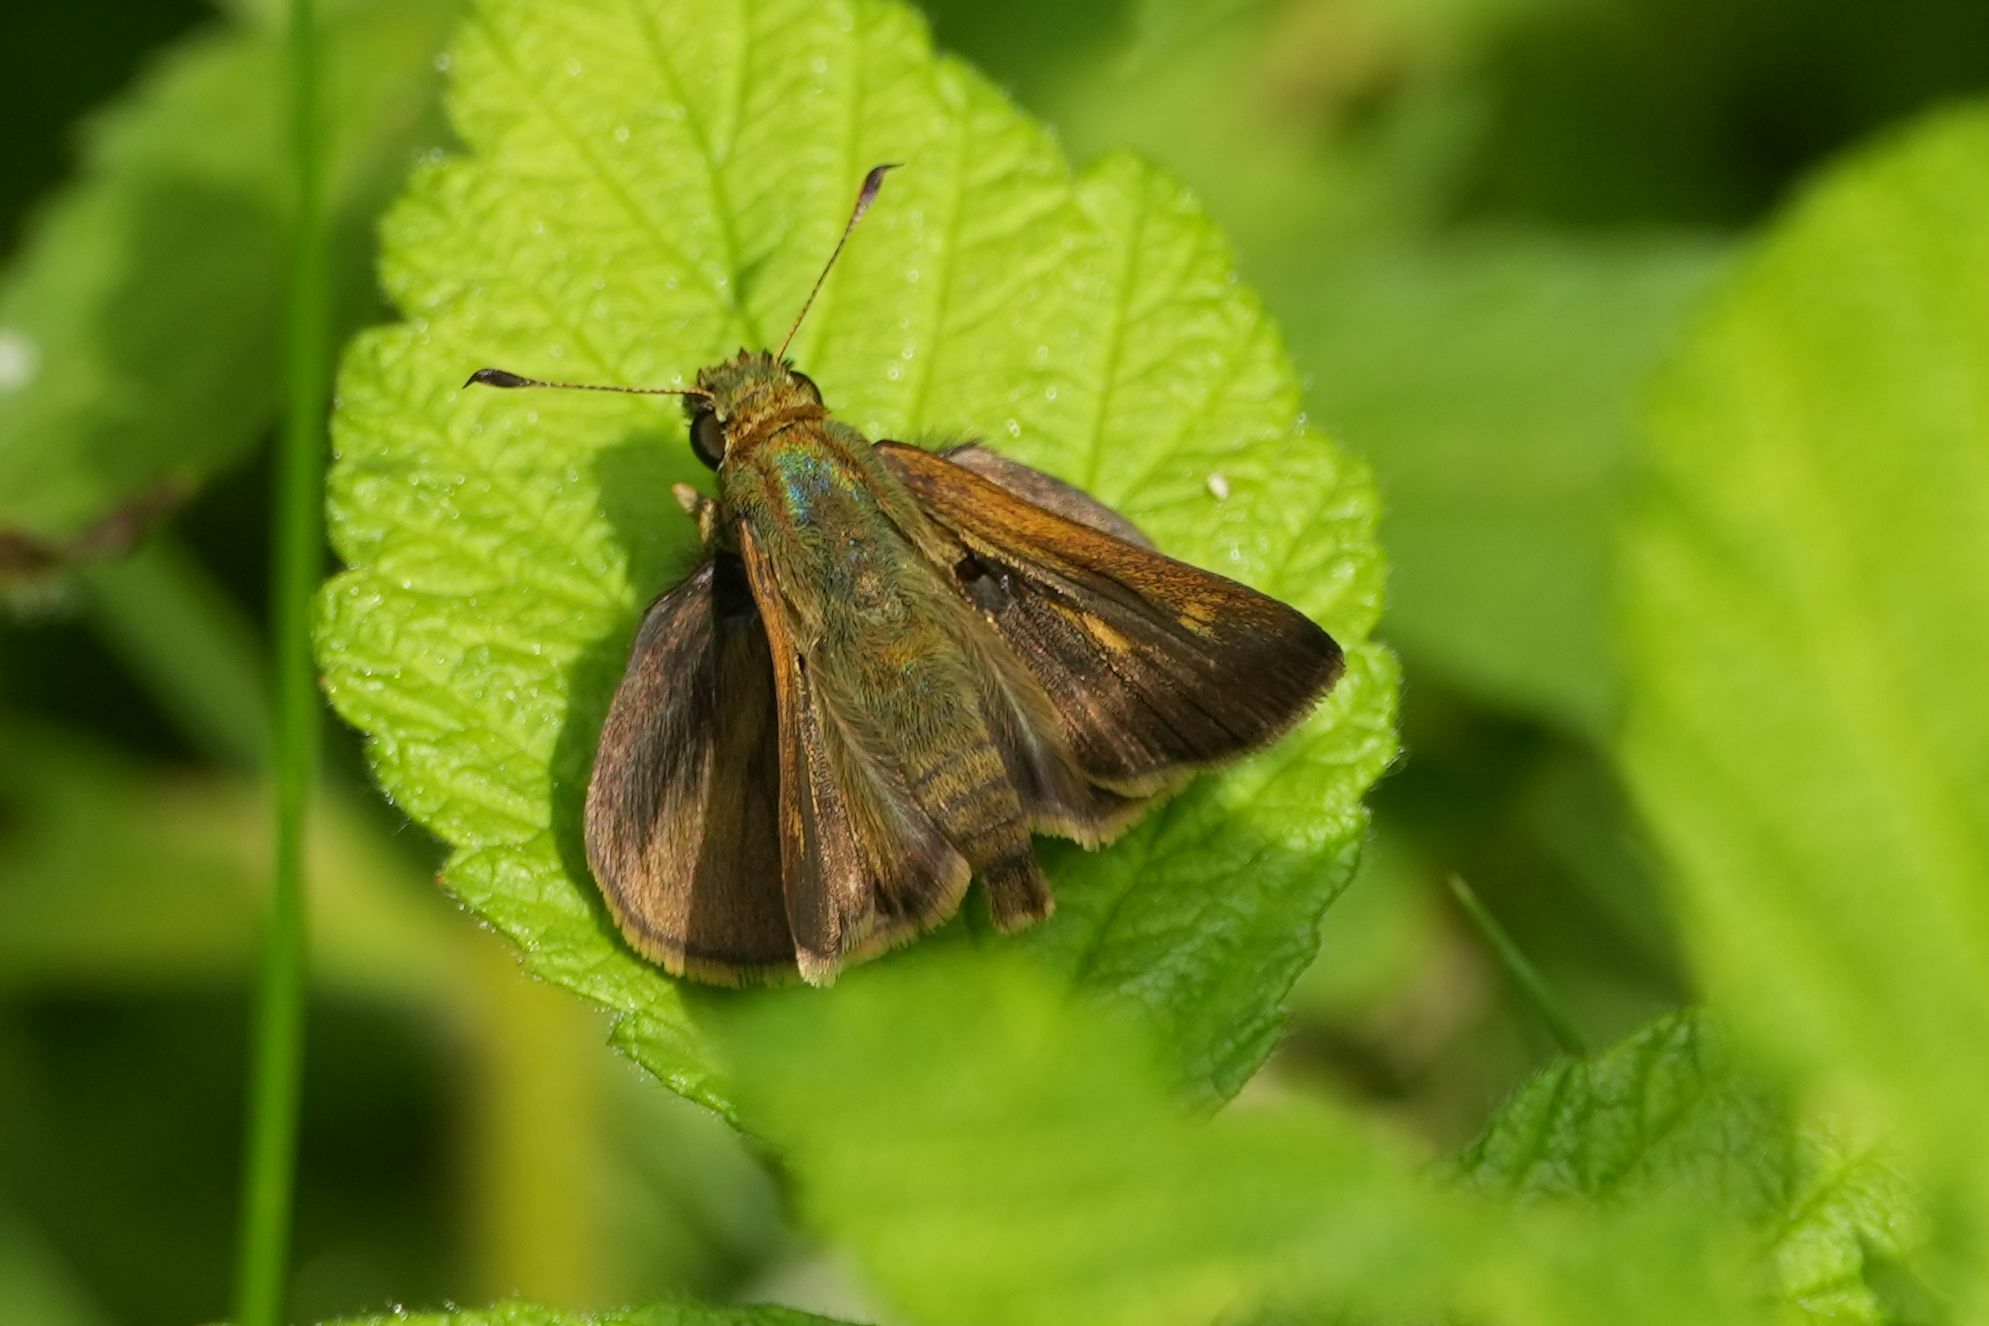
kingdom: Animalia
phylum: Arthropoda
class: Insecta
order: Lepidoptera
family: Hesperiidae
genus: Polites
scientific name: Polites egeremet
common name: Northern broken-dash
